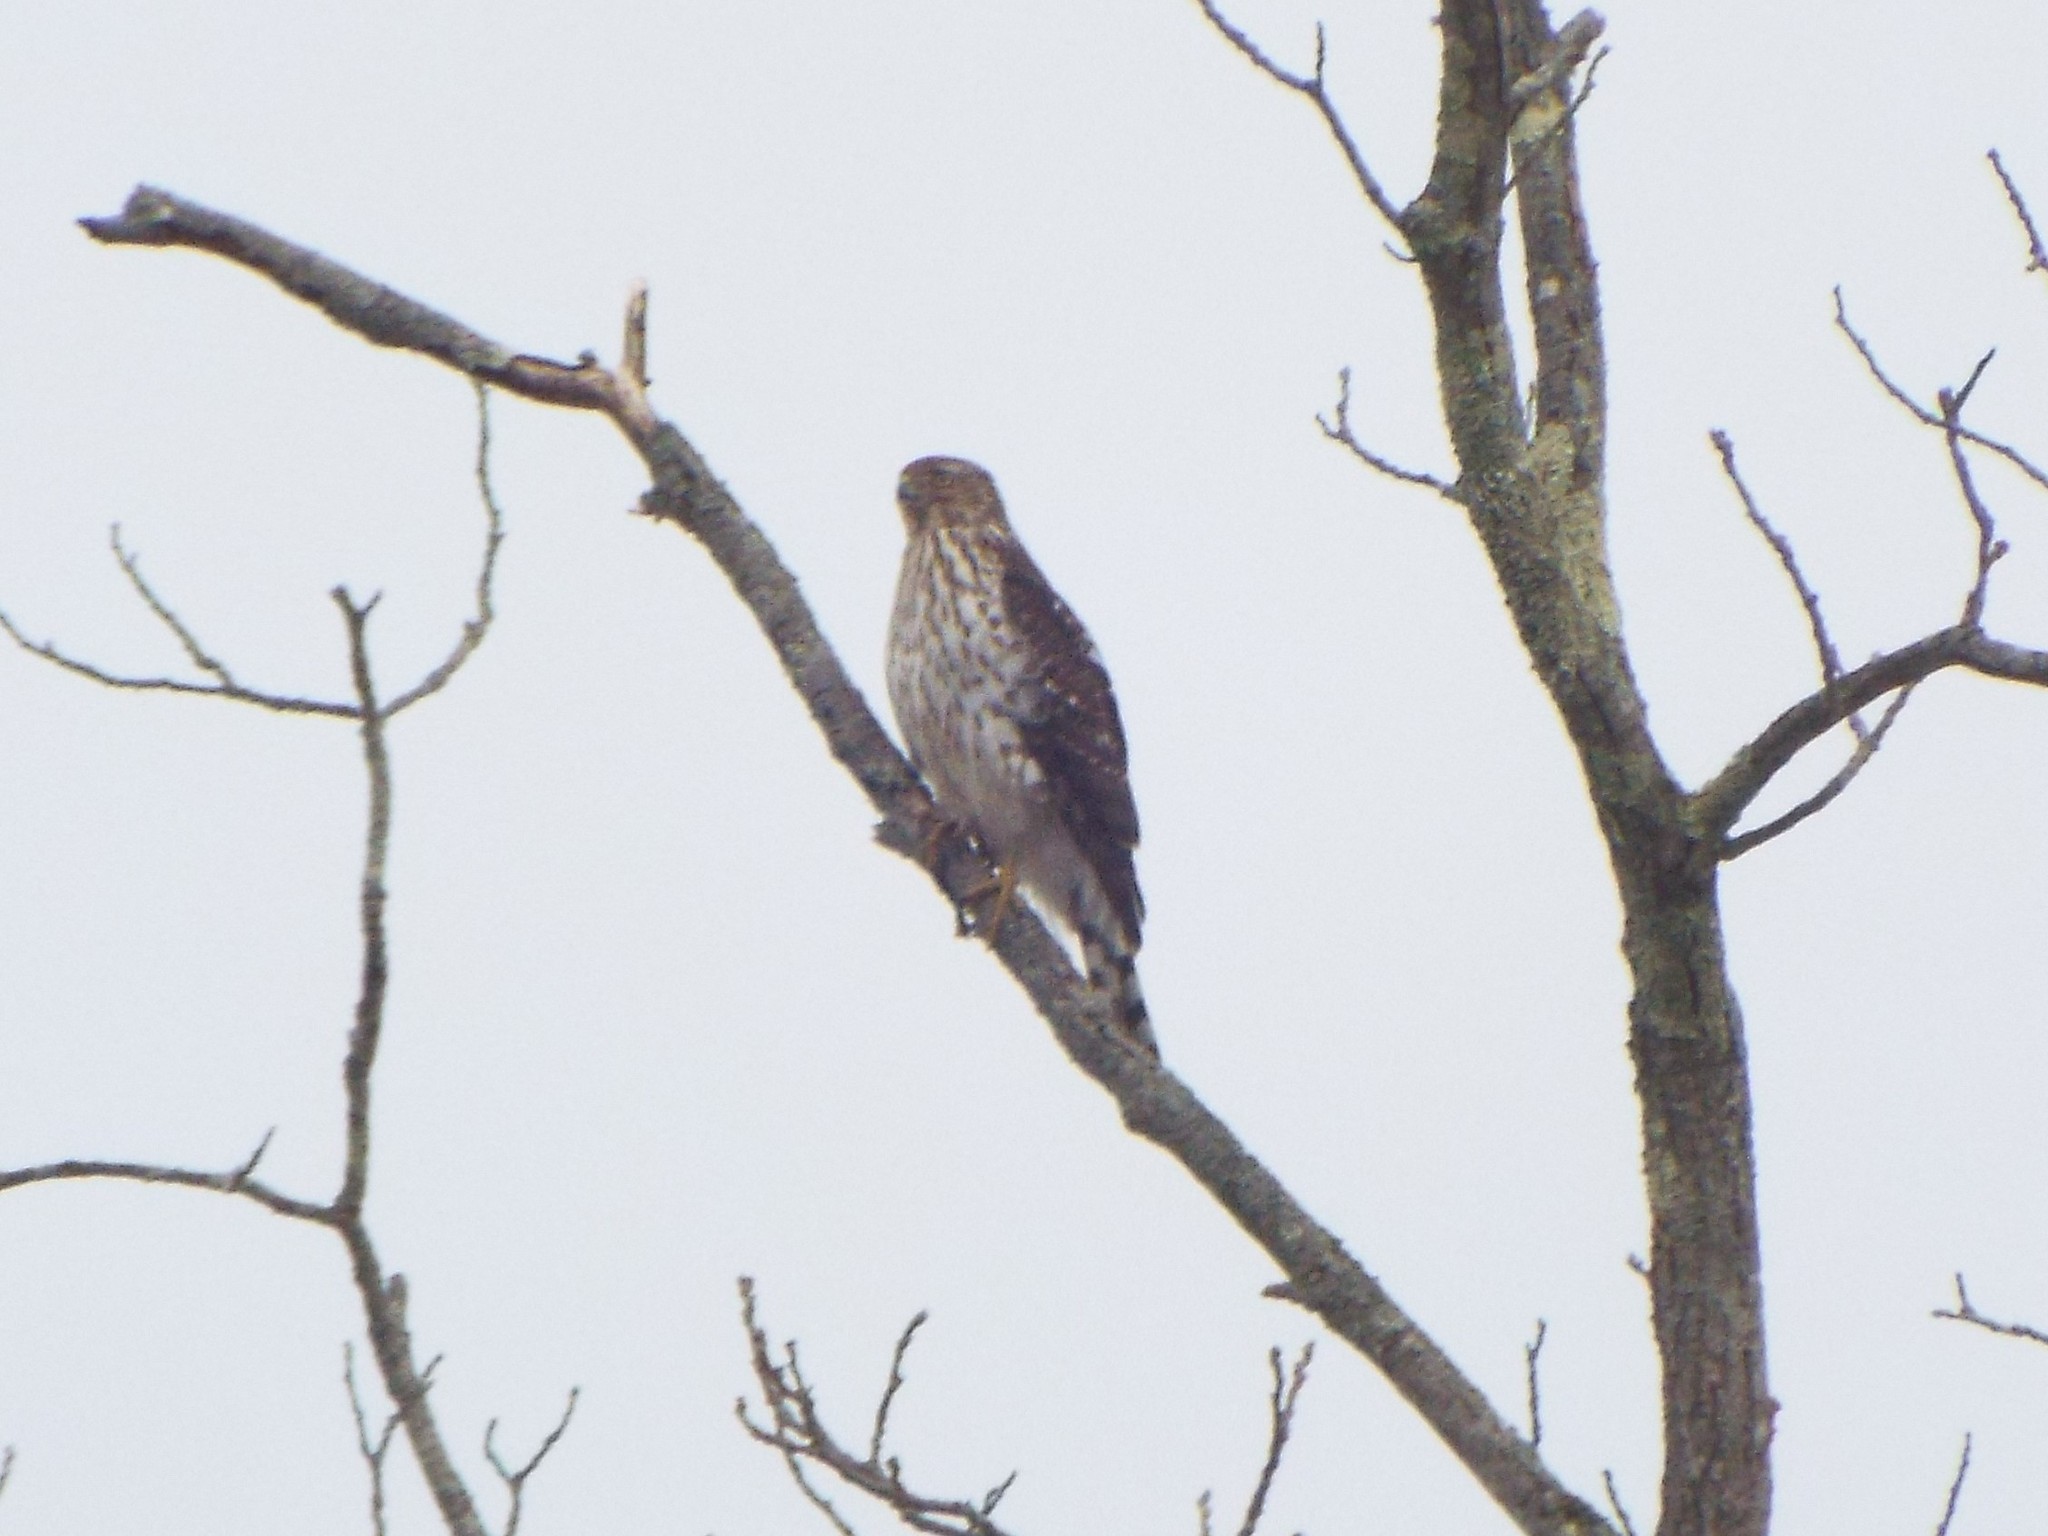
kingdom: Animalia
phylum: Chordata
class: Aves
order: Accipitriformes
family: Accipitridae
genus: Accipiter
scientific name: Accipiter cooperii
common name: Cooper's hawk
